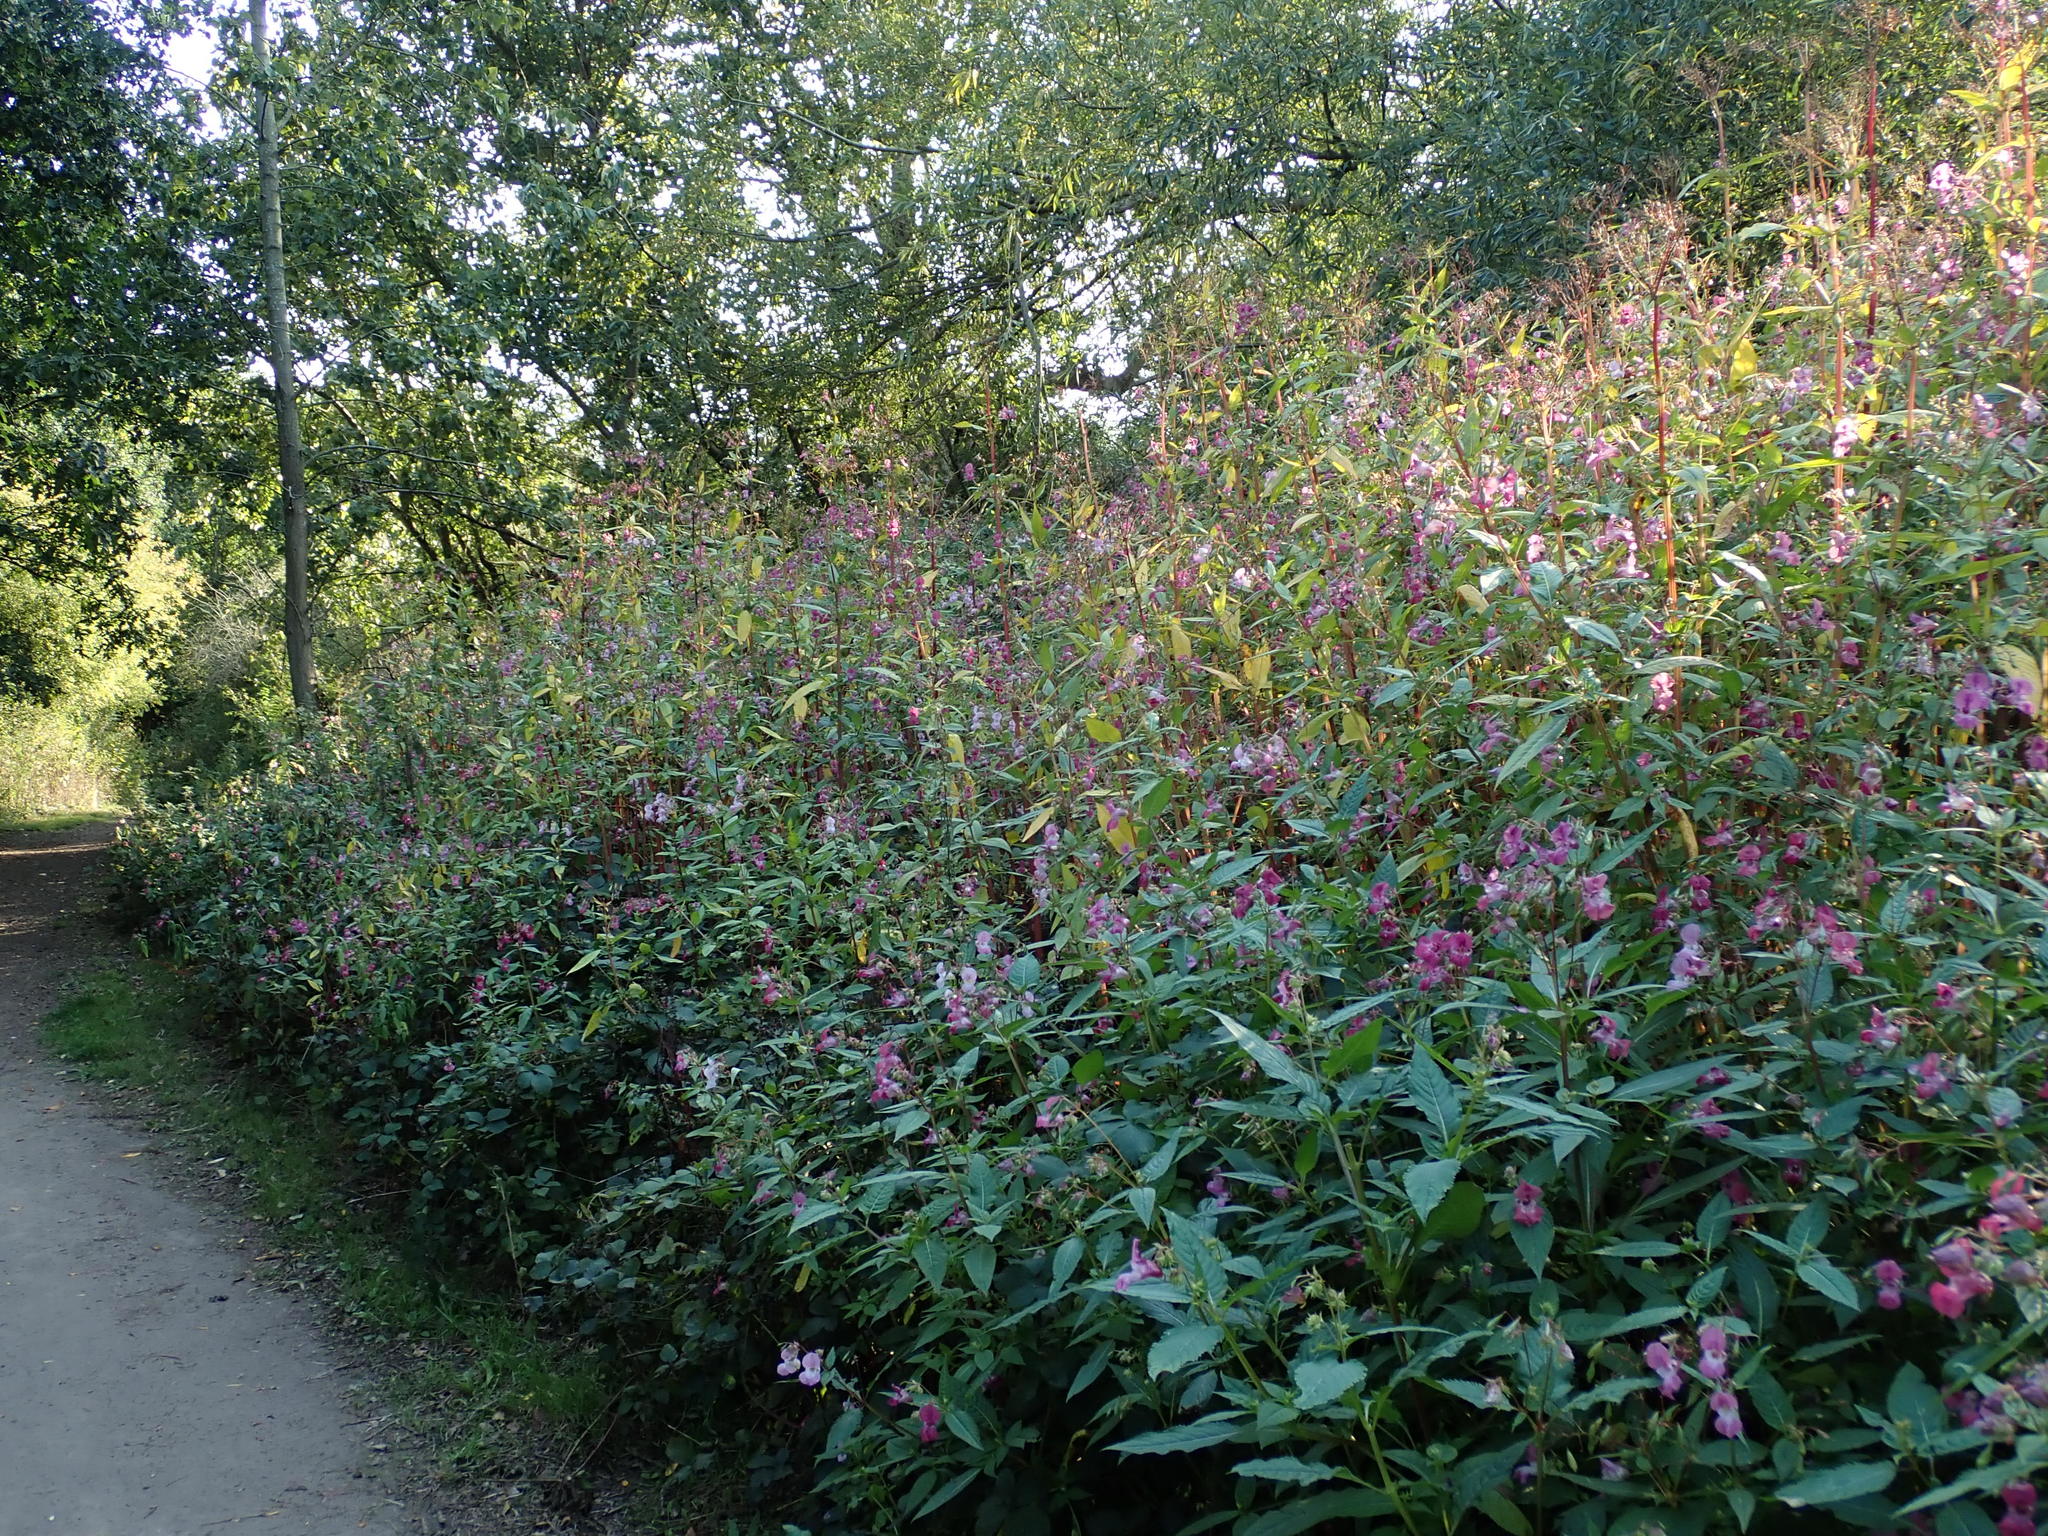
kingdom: Plantae
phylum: Tracheophyta
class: Magnoliopsida
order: Ericales
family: Balsaminaceae
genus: Impatiens
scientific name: Impatiens glandulifera
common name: Himalayan balsam
